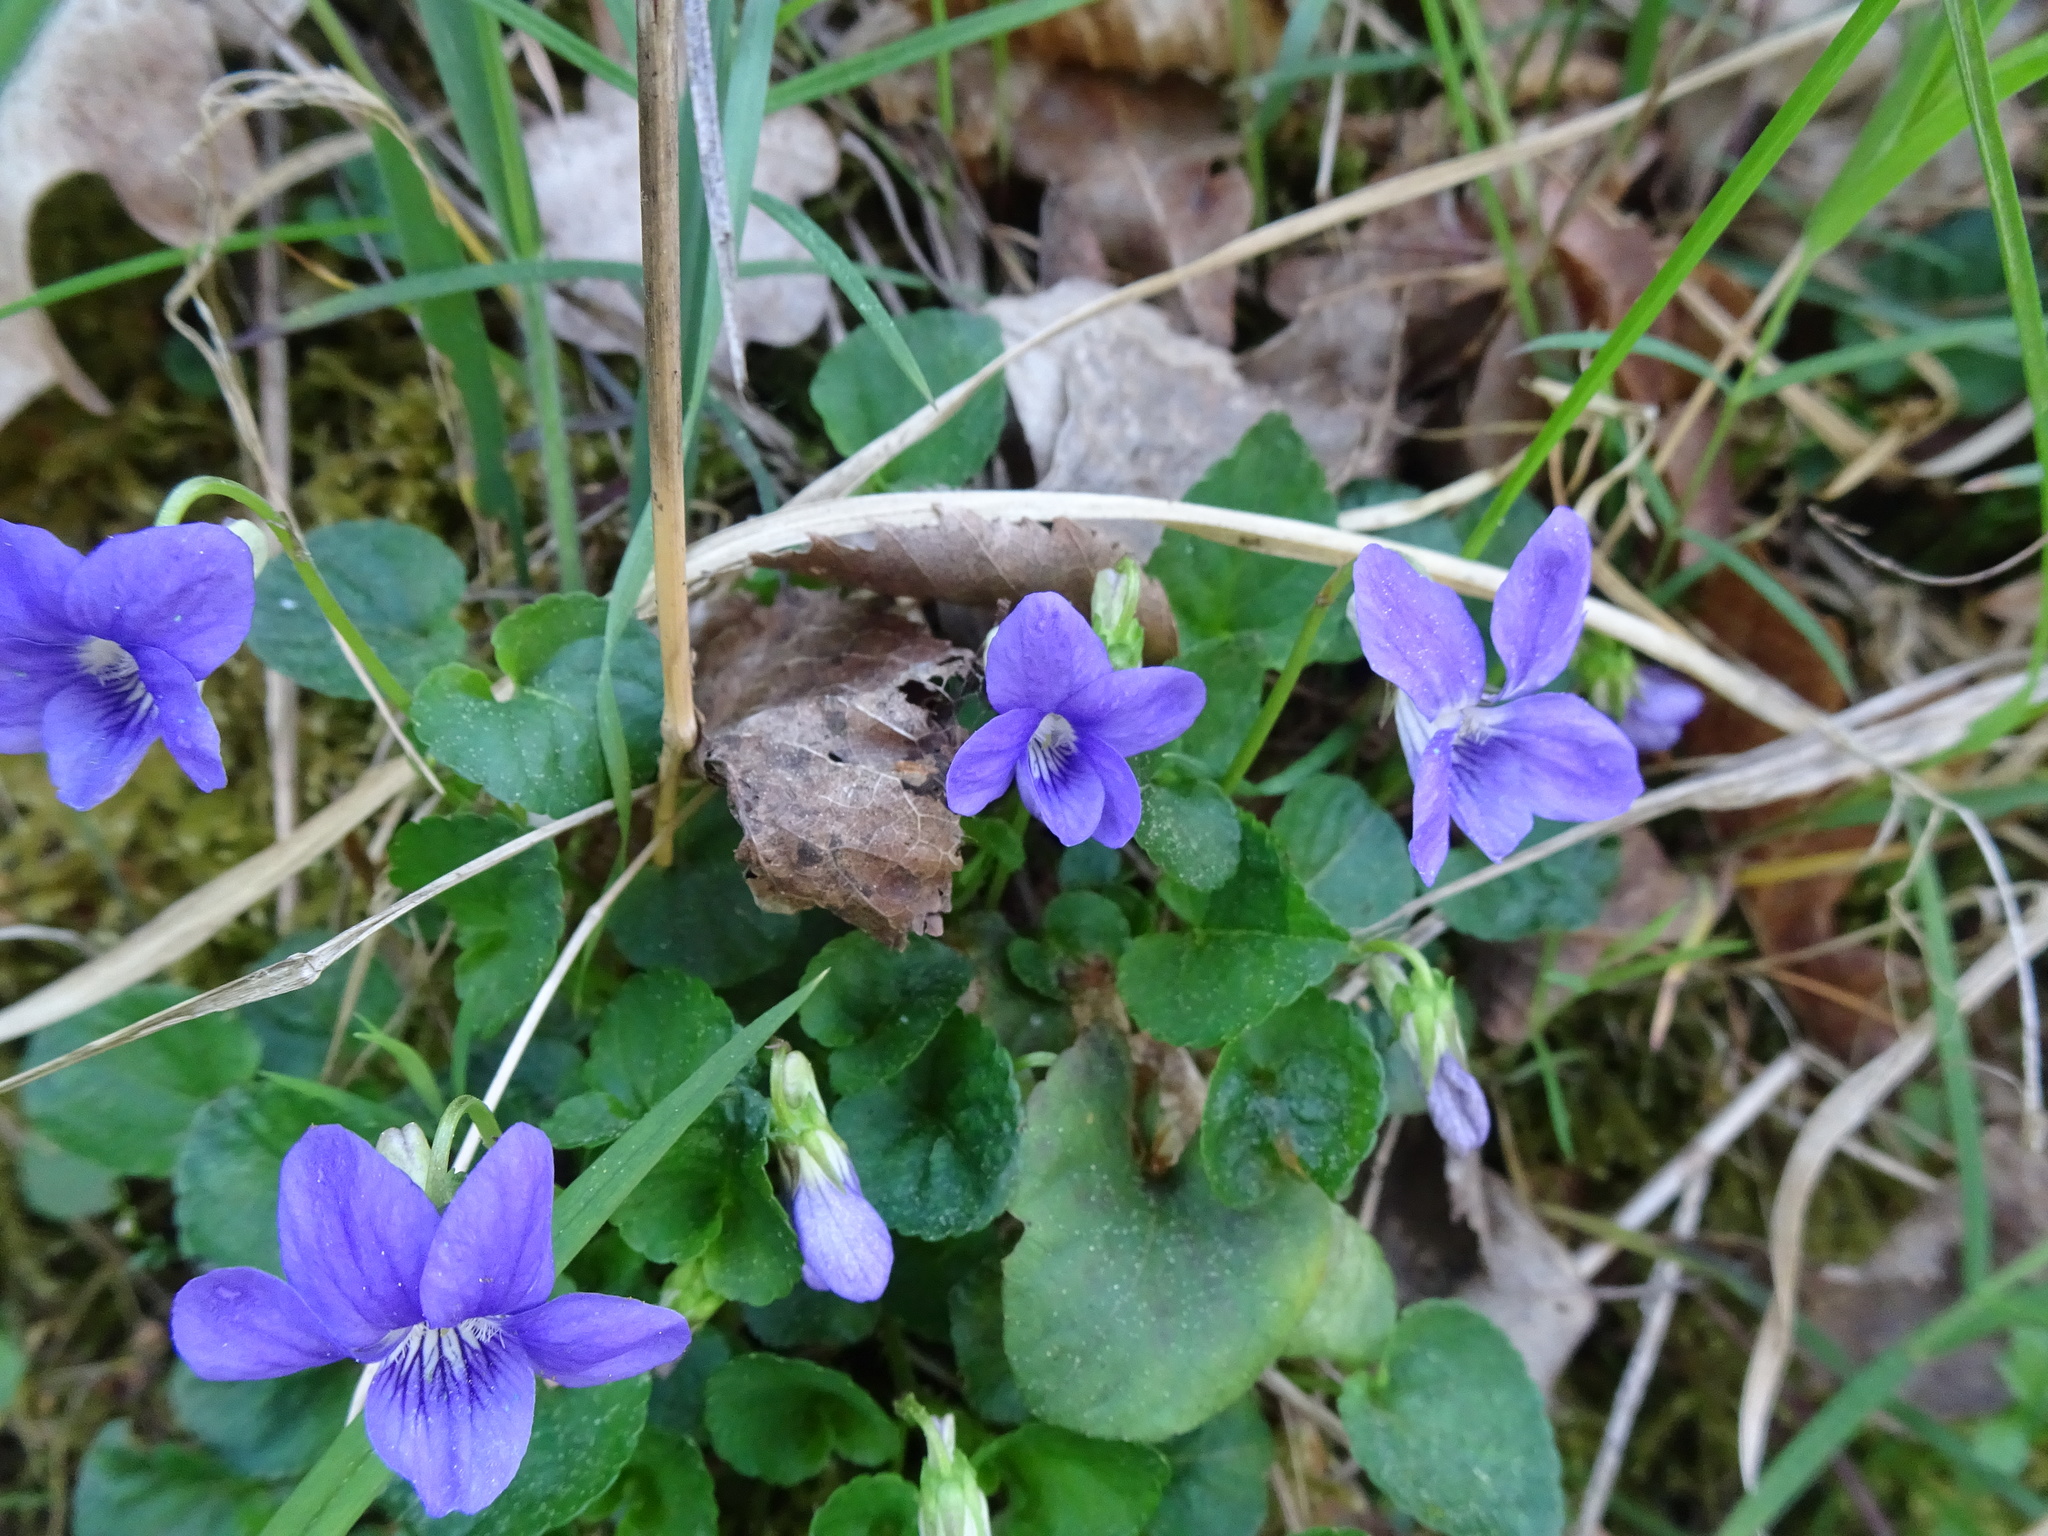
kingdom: Plantae
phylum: Tracheophyta
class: Magnoliopsida
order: Malpighiales
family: Violaceae
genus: Viola
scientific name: Viola riviniana
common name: Common dog-violet
